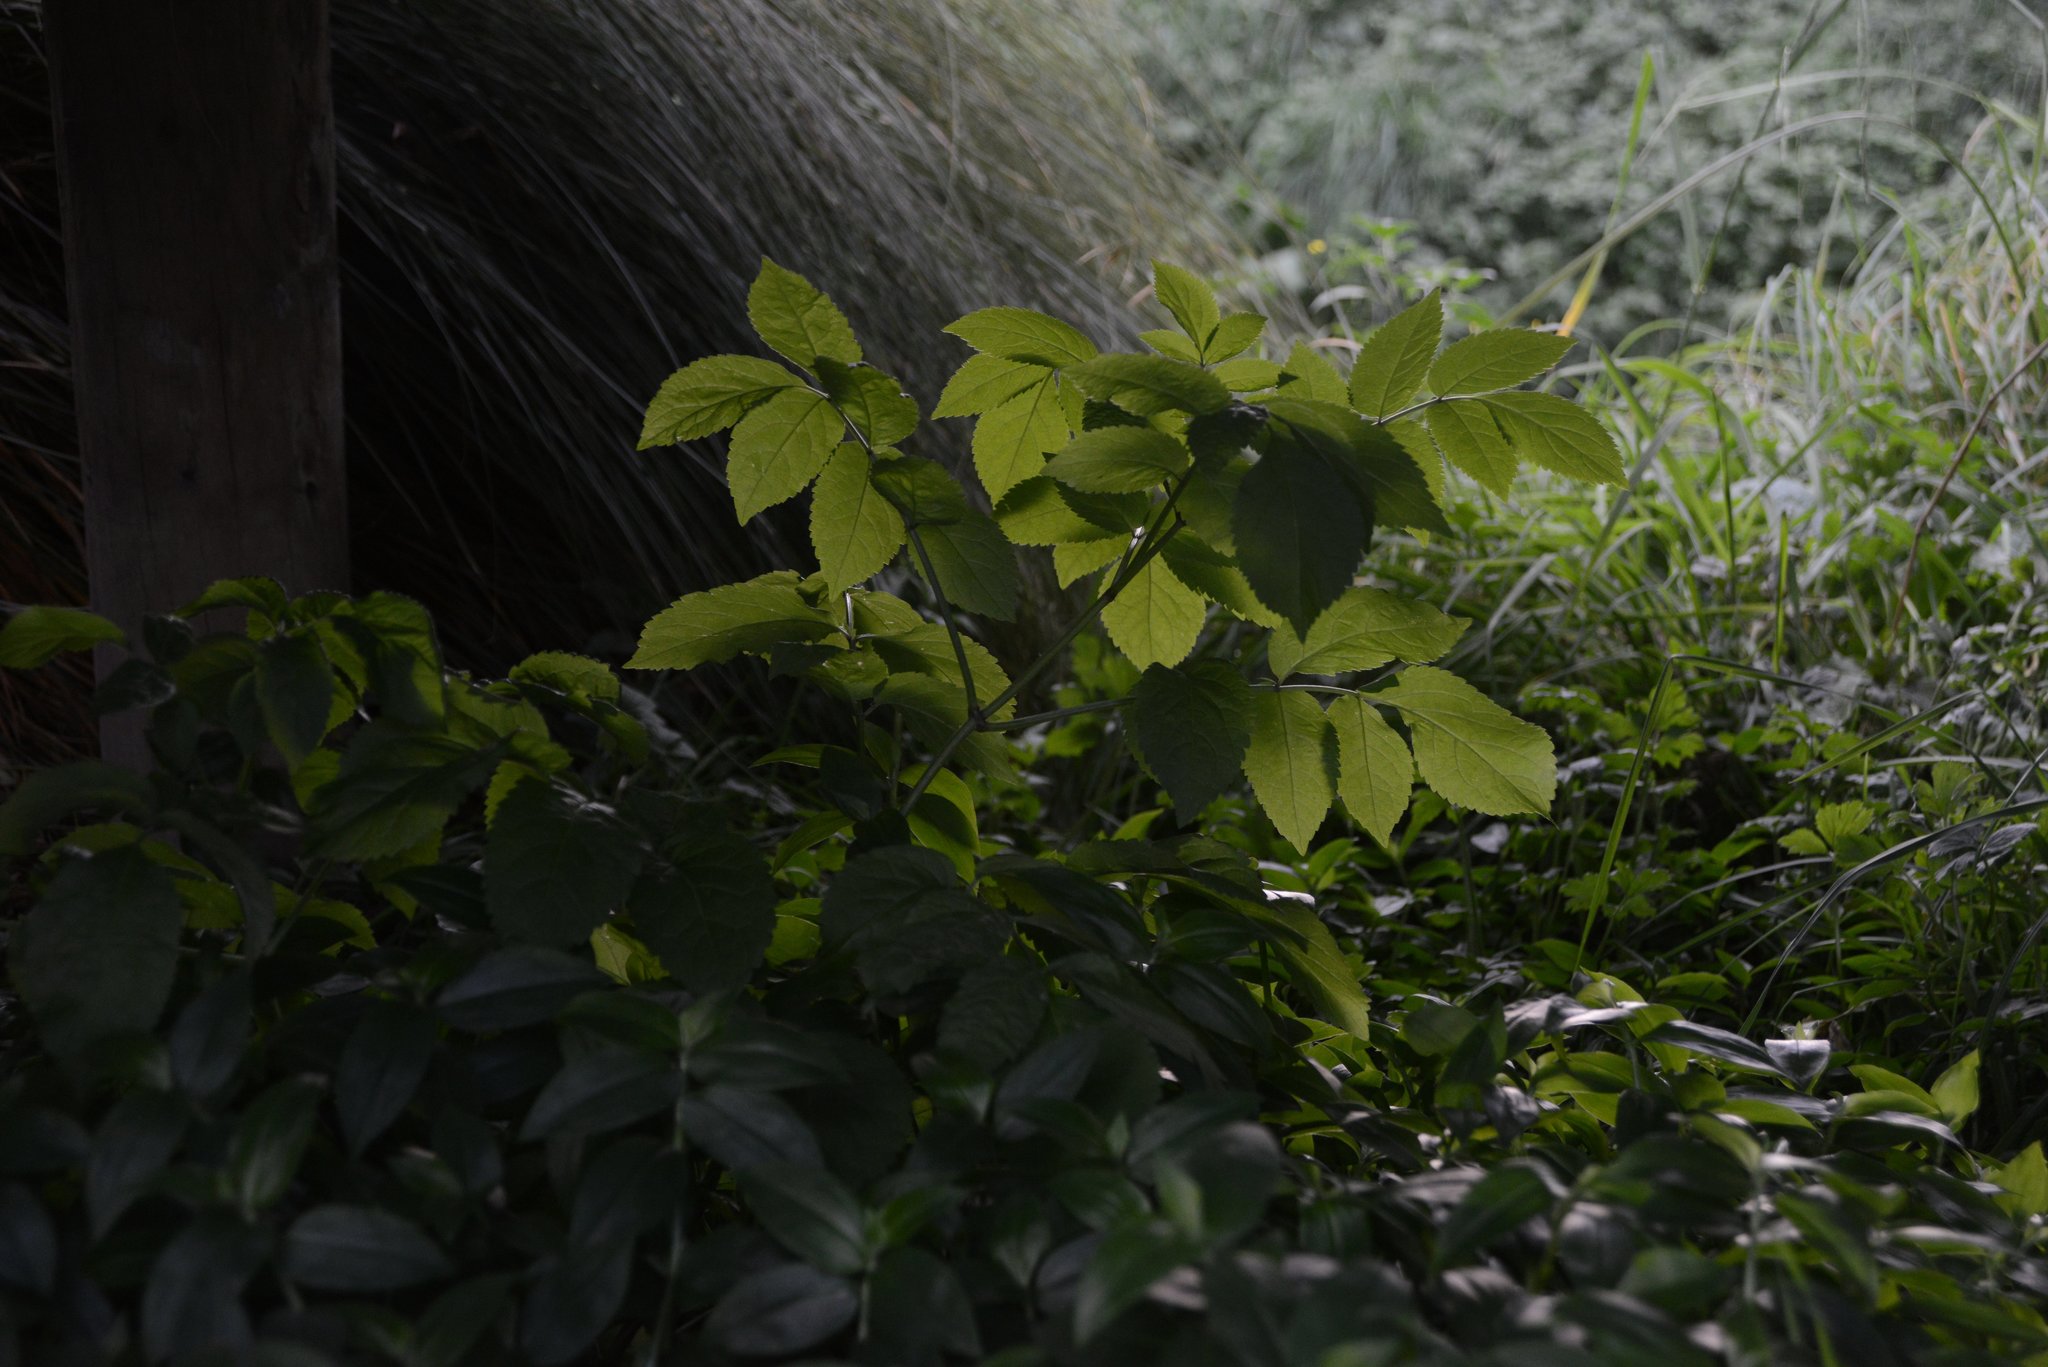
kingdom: Plantae
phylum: Tracheophyta
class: Magnoliopsida
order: Dipsacales
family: Viburnaceae
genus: Sambucus
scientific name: Sambucus nigra
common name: Elder
